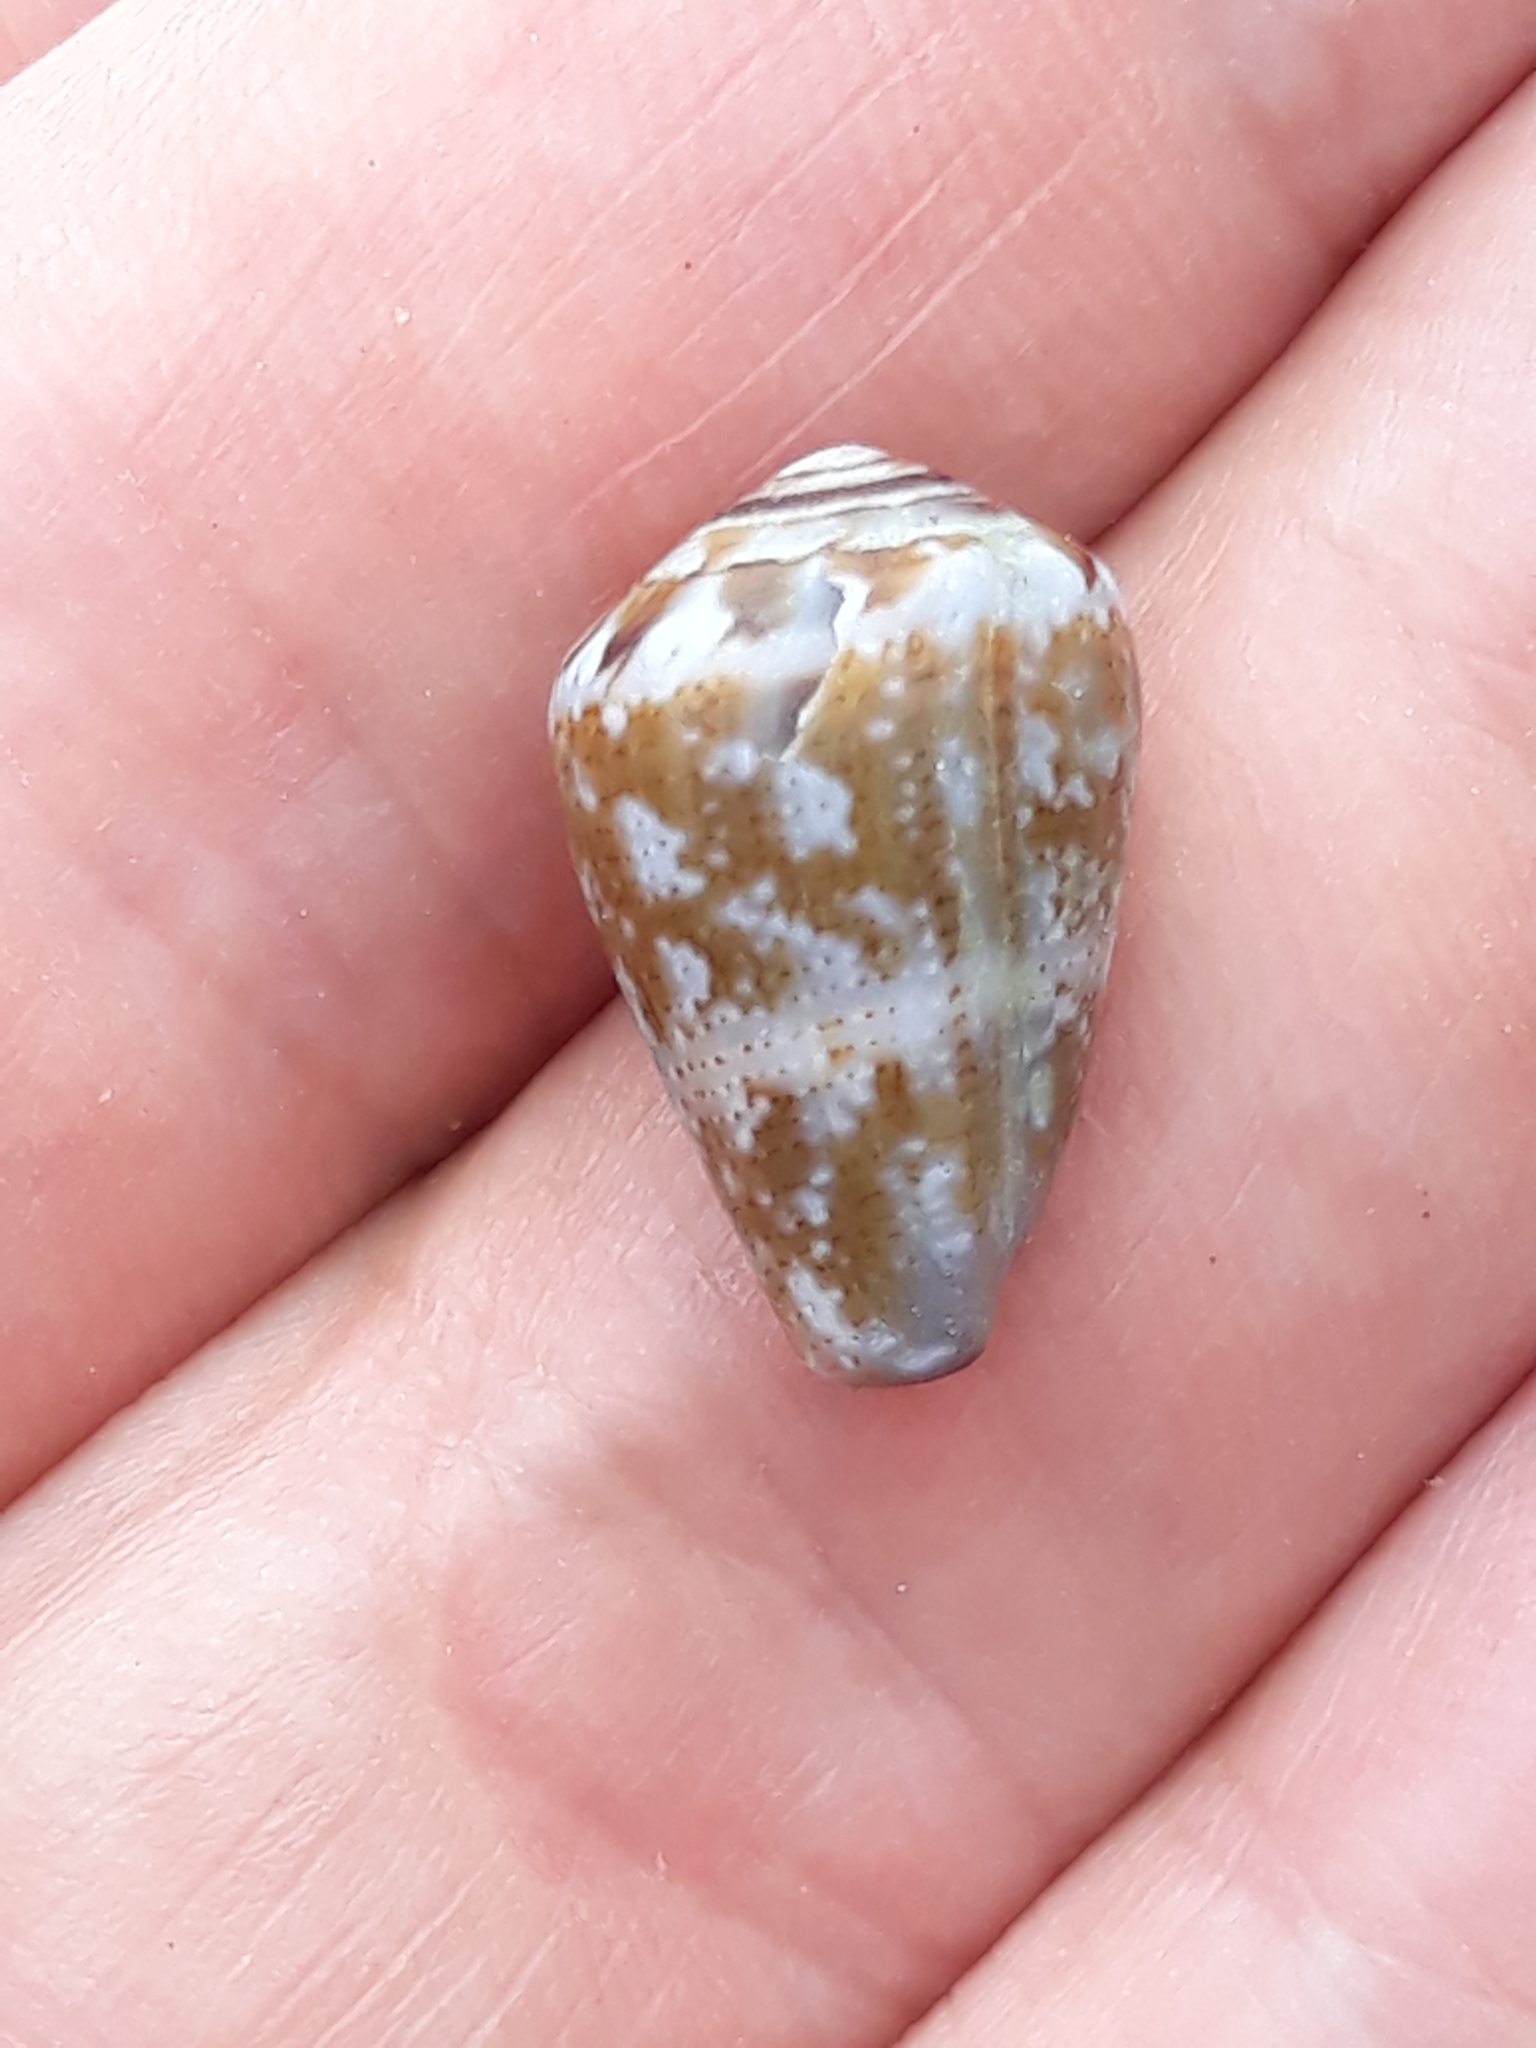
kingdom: Animalia
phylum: Mollusca
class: Gastropoda
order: Neogastropoda
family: Conidae
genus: Conus
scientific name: Conus ventricosus
